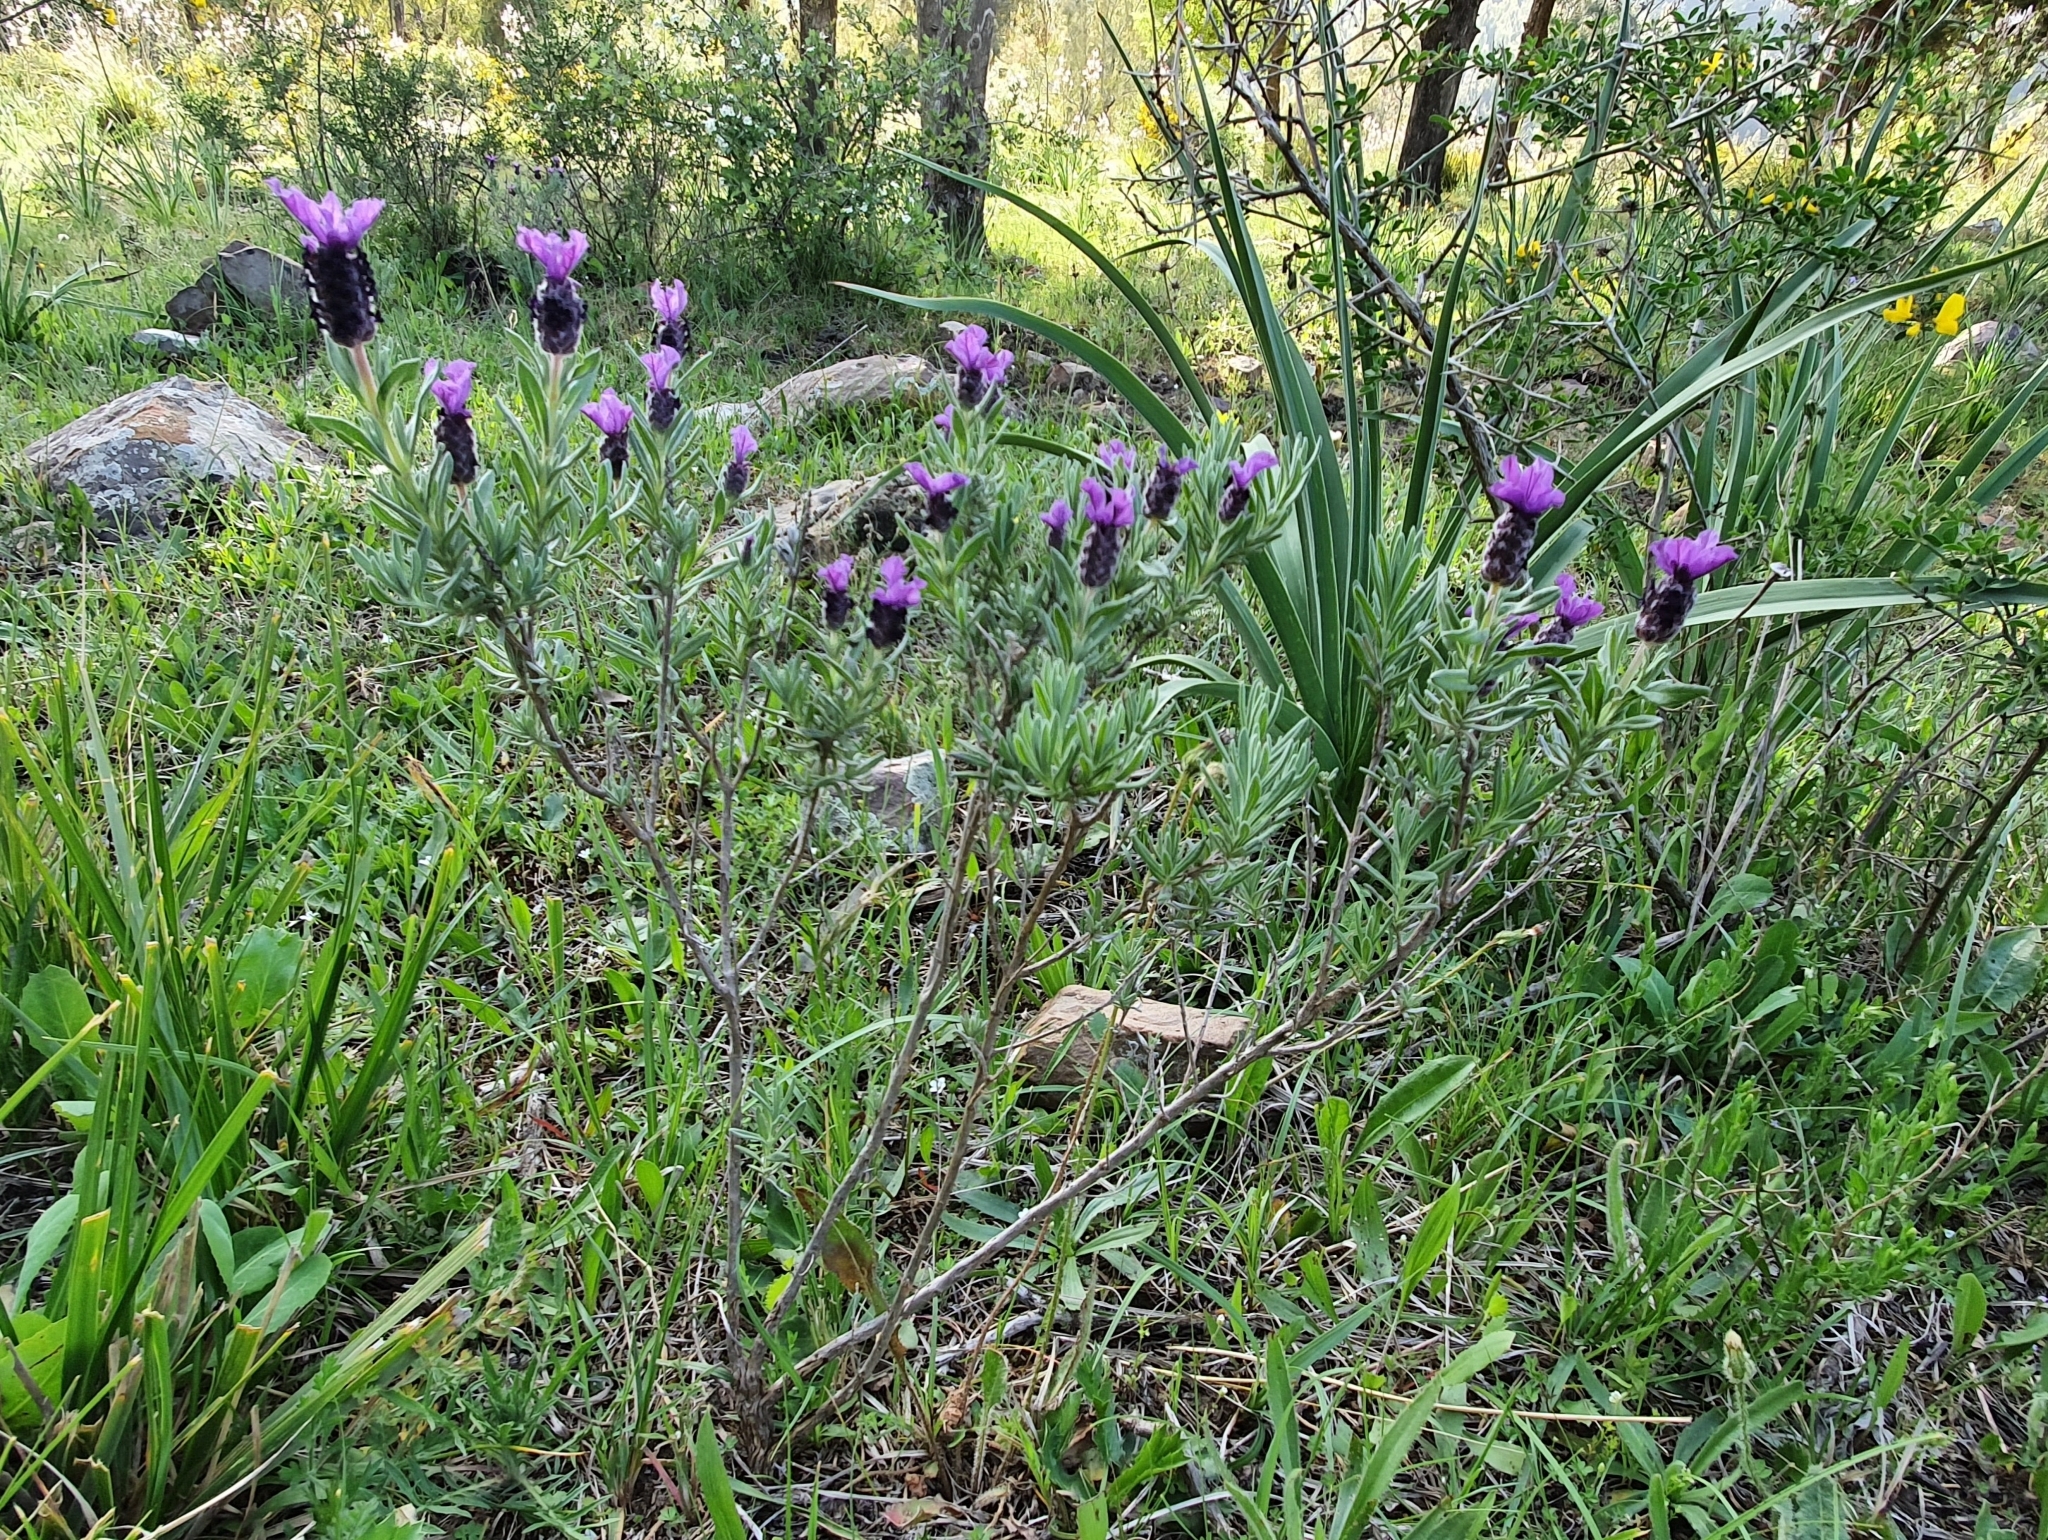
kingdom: Plantae
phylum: Tracheophyta
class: Magnoliopsida
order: Lamiales
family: Lamiaceae
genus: Lavandula
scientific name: Lavandula stoechas
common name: French lavender
